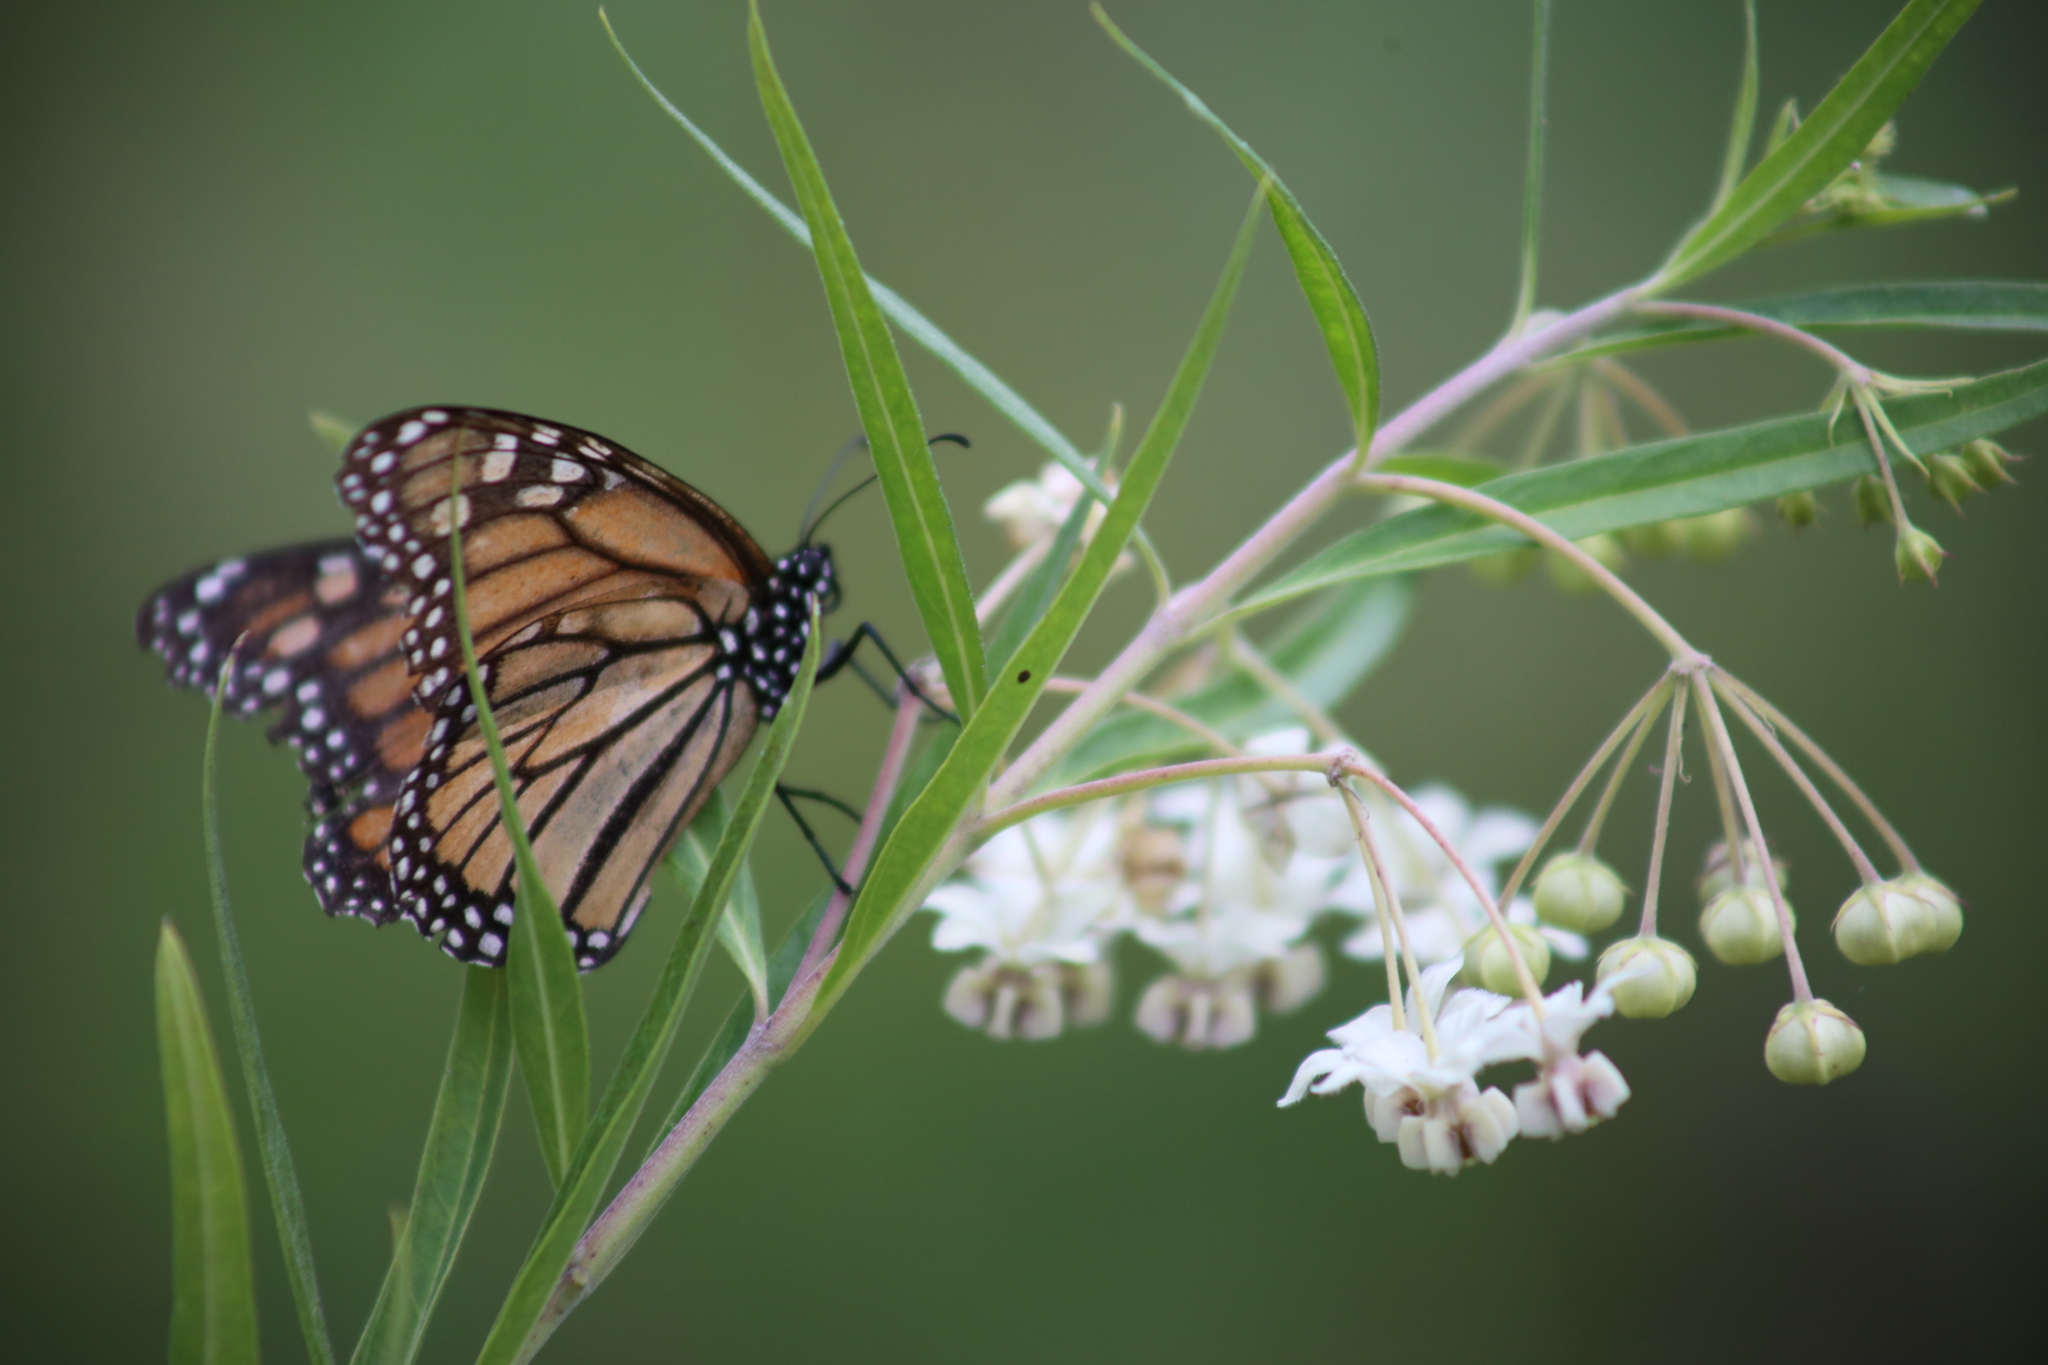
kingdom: Animalia
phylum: Arthropoda
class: Insecta
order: Lepidoptera
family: Nymphalidae
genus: Danaus
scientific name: Danaus plexippus
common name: Monarch
